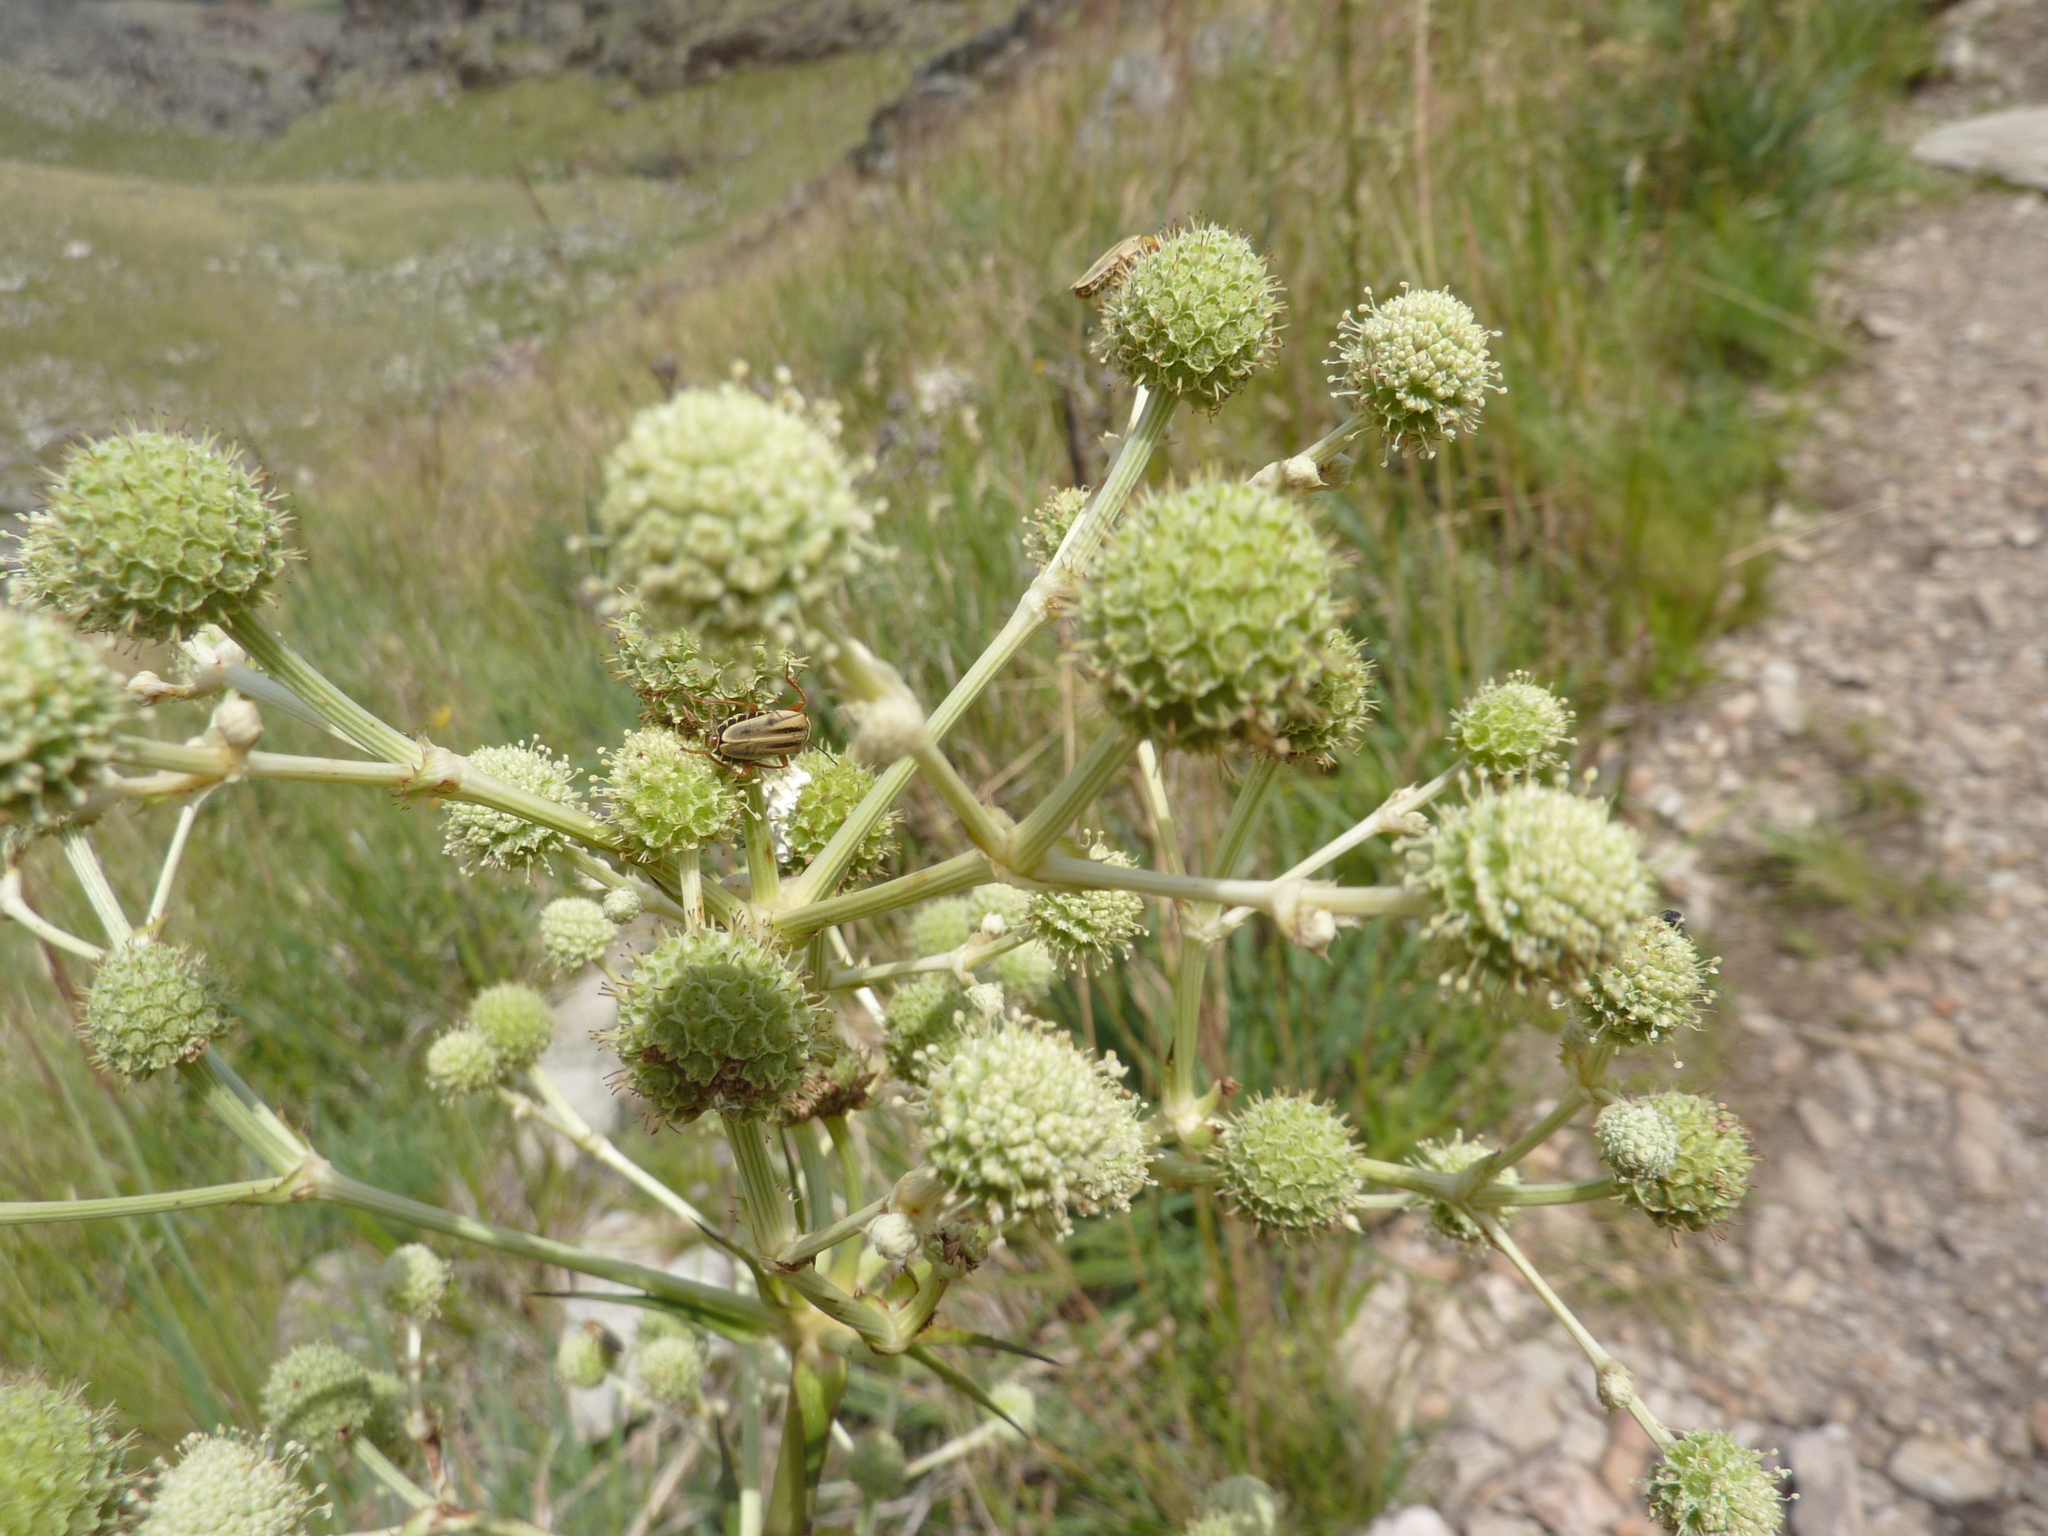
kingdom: Plantae
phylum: Tracheophyta
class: Magnoliopsida
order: Apiales
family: Apiaceae
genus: Eryngium
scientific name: Eryngium humboldtii
